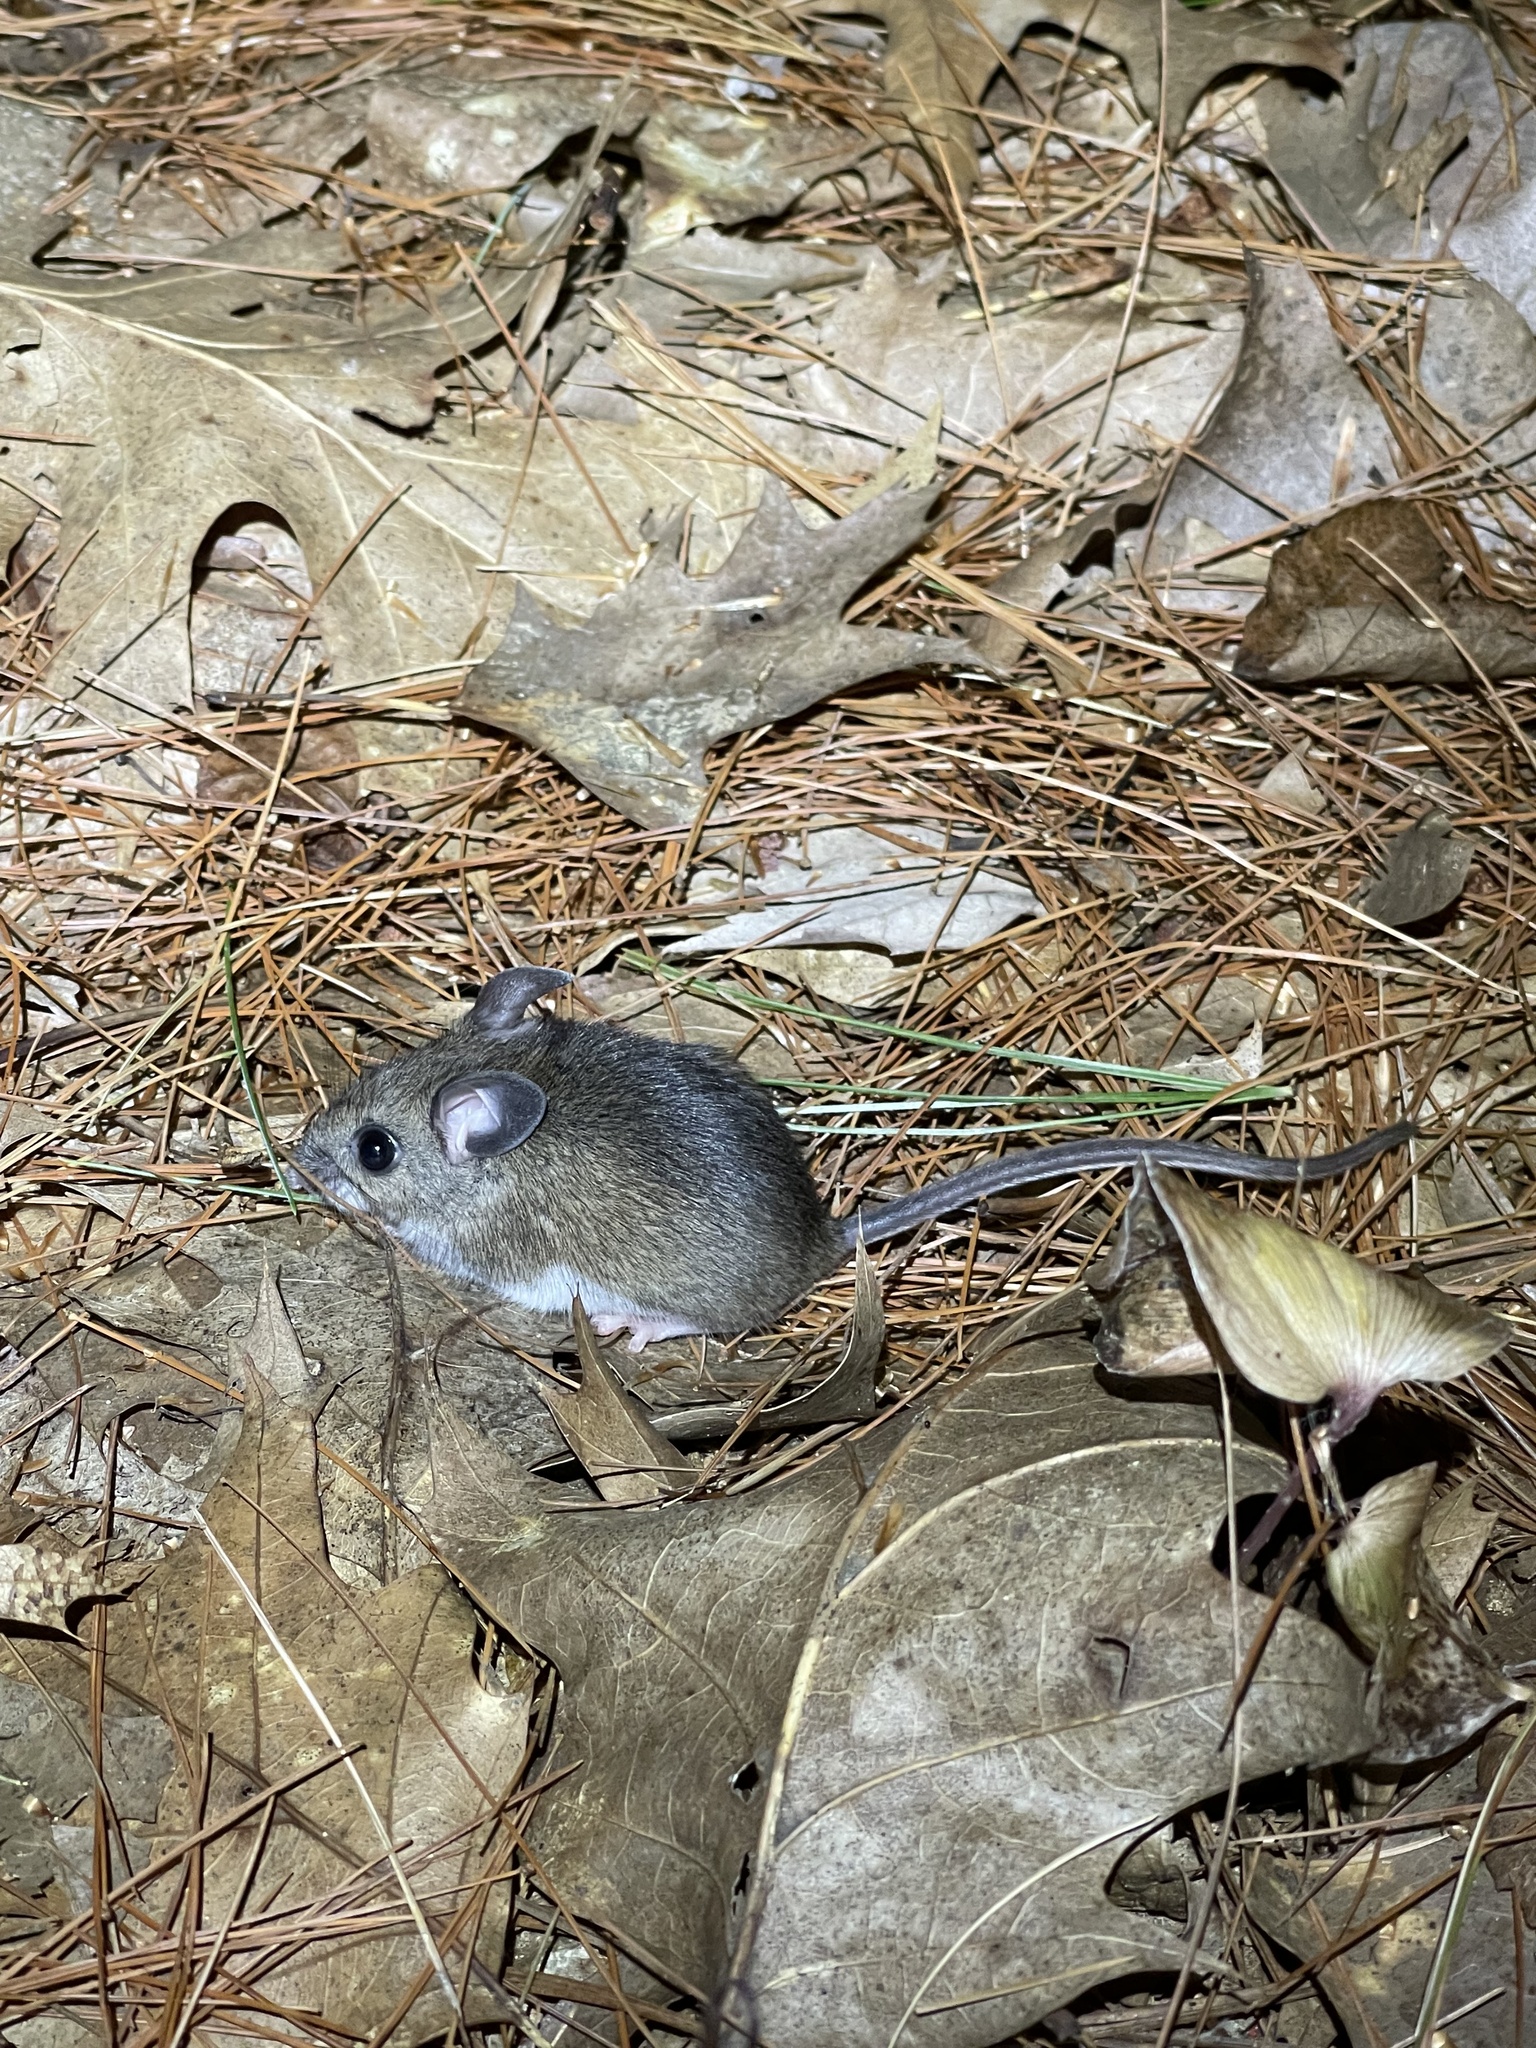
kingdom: Animalia
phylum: Chordata
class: Mammalia
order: Rodentia
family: Cricetidae
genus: Peromyscus
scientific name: Peromyscus leucopus
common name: White-footed deermouse
